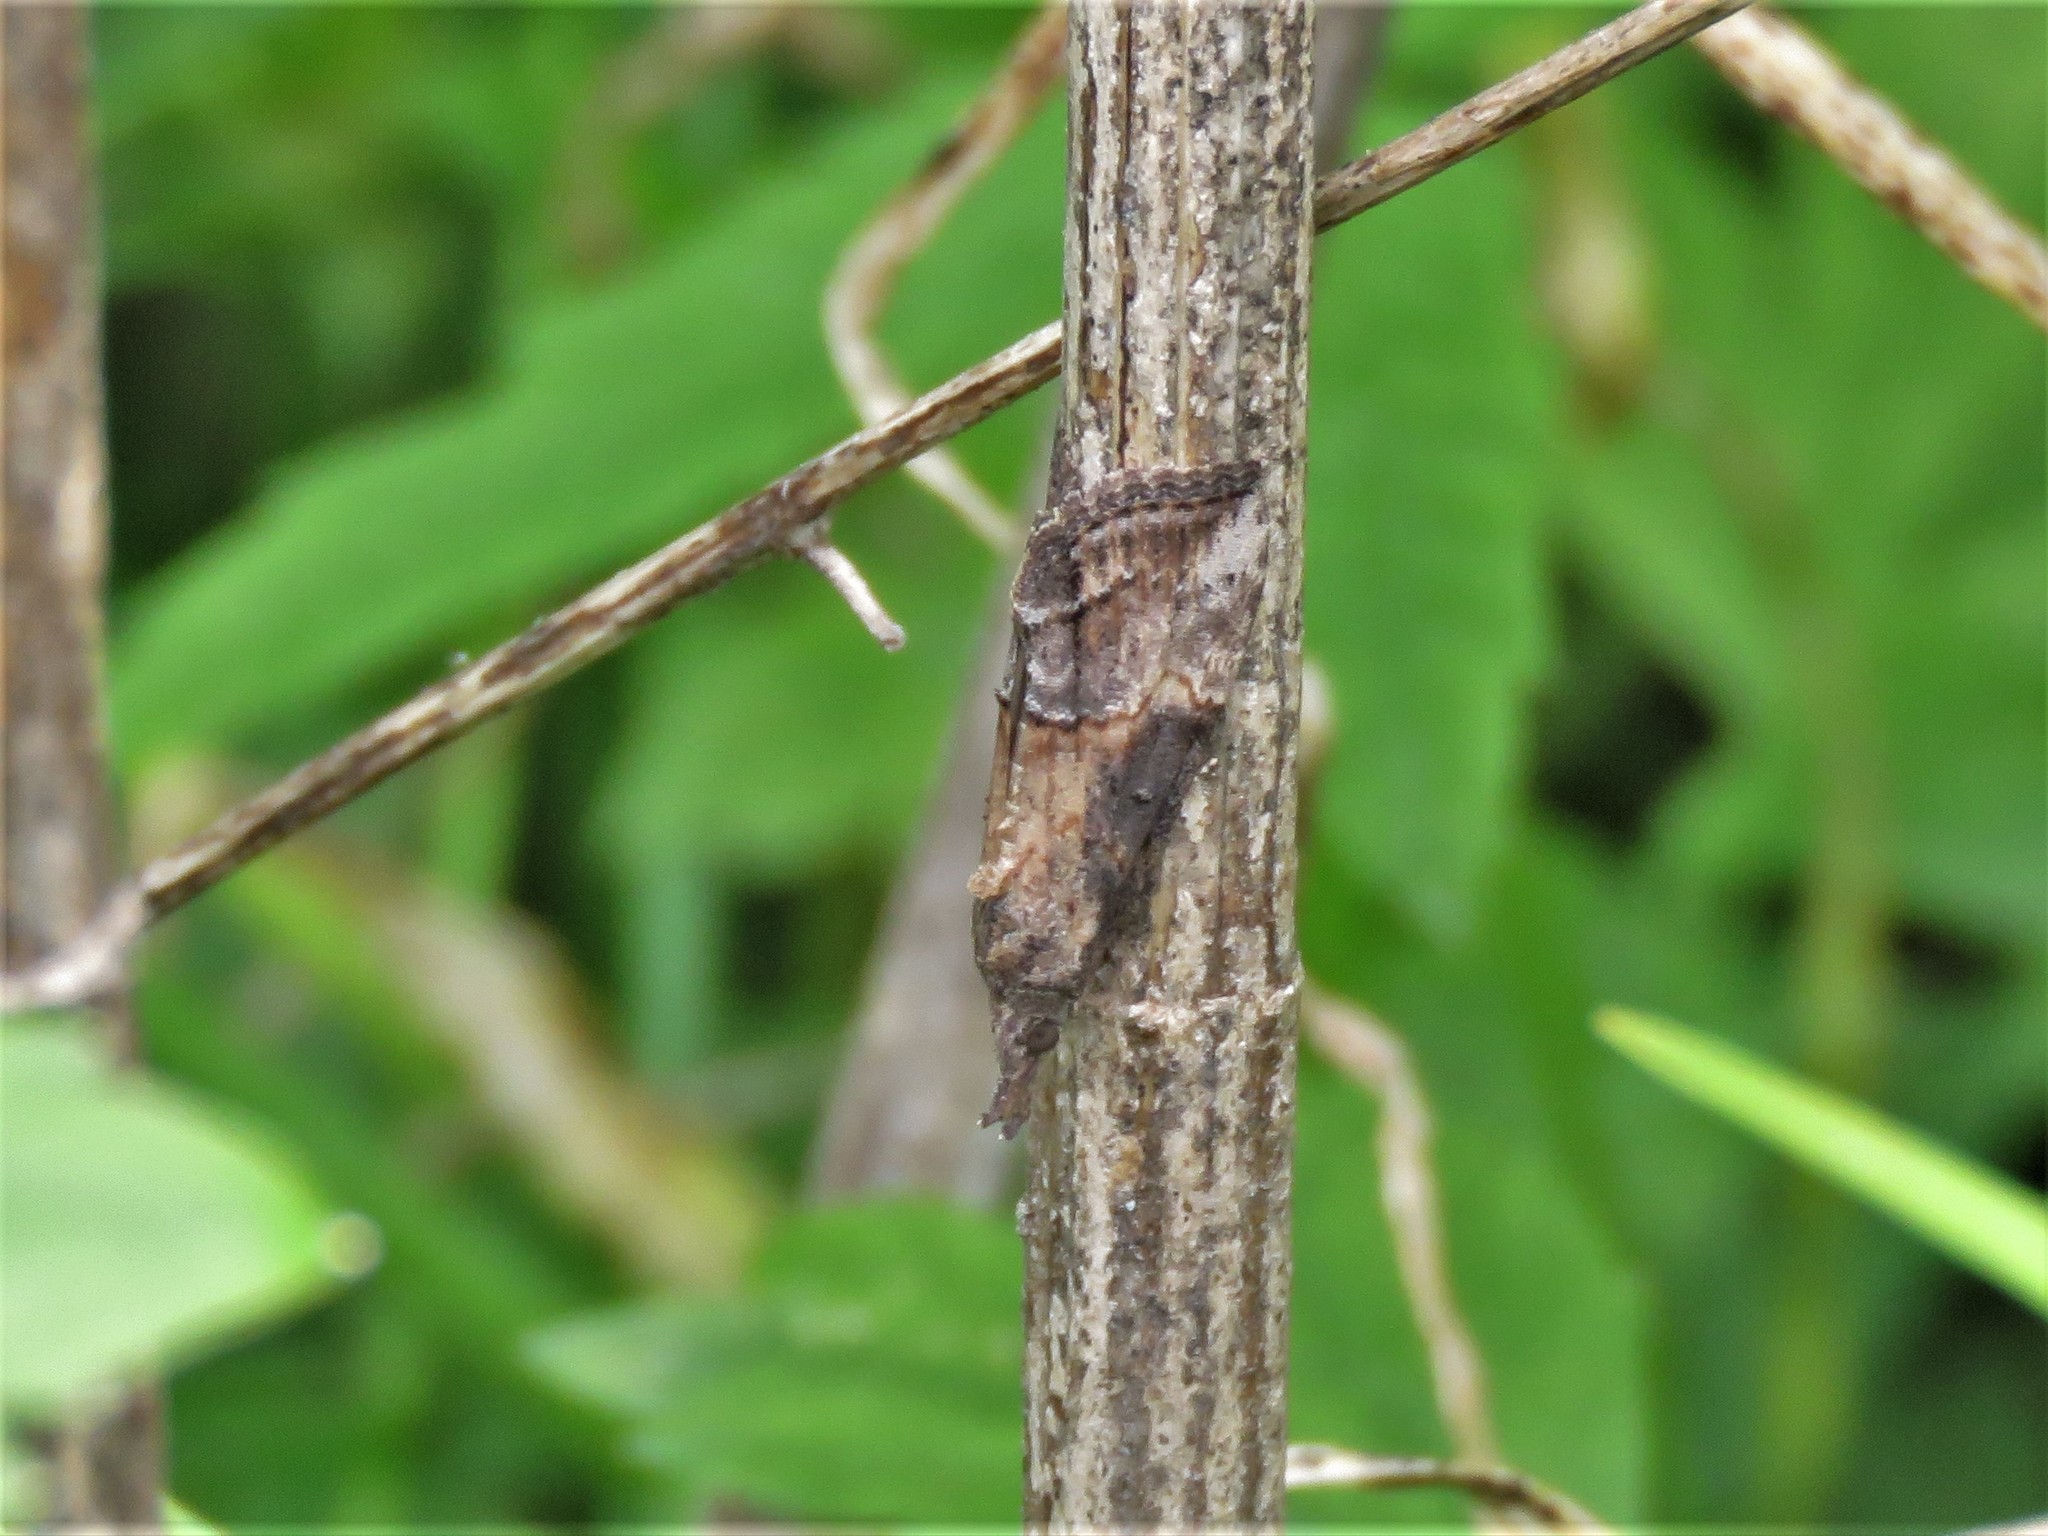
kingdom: Animalia
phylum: Arthropoda
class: Insecta
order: Lepidoptera
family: Erebidae
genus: Hypena
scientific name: Hypena scabra
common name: Green cloverworm
